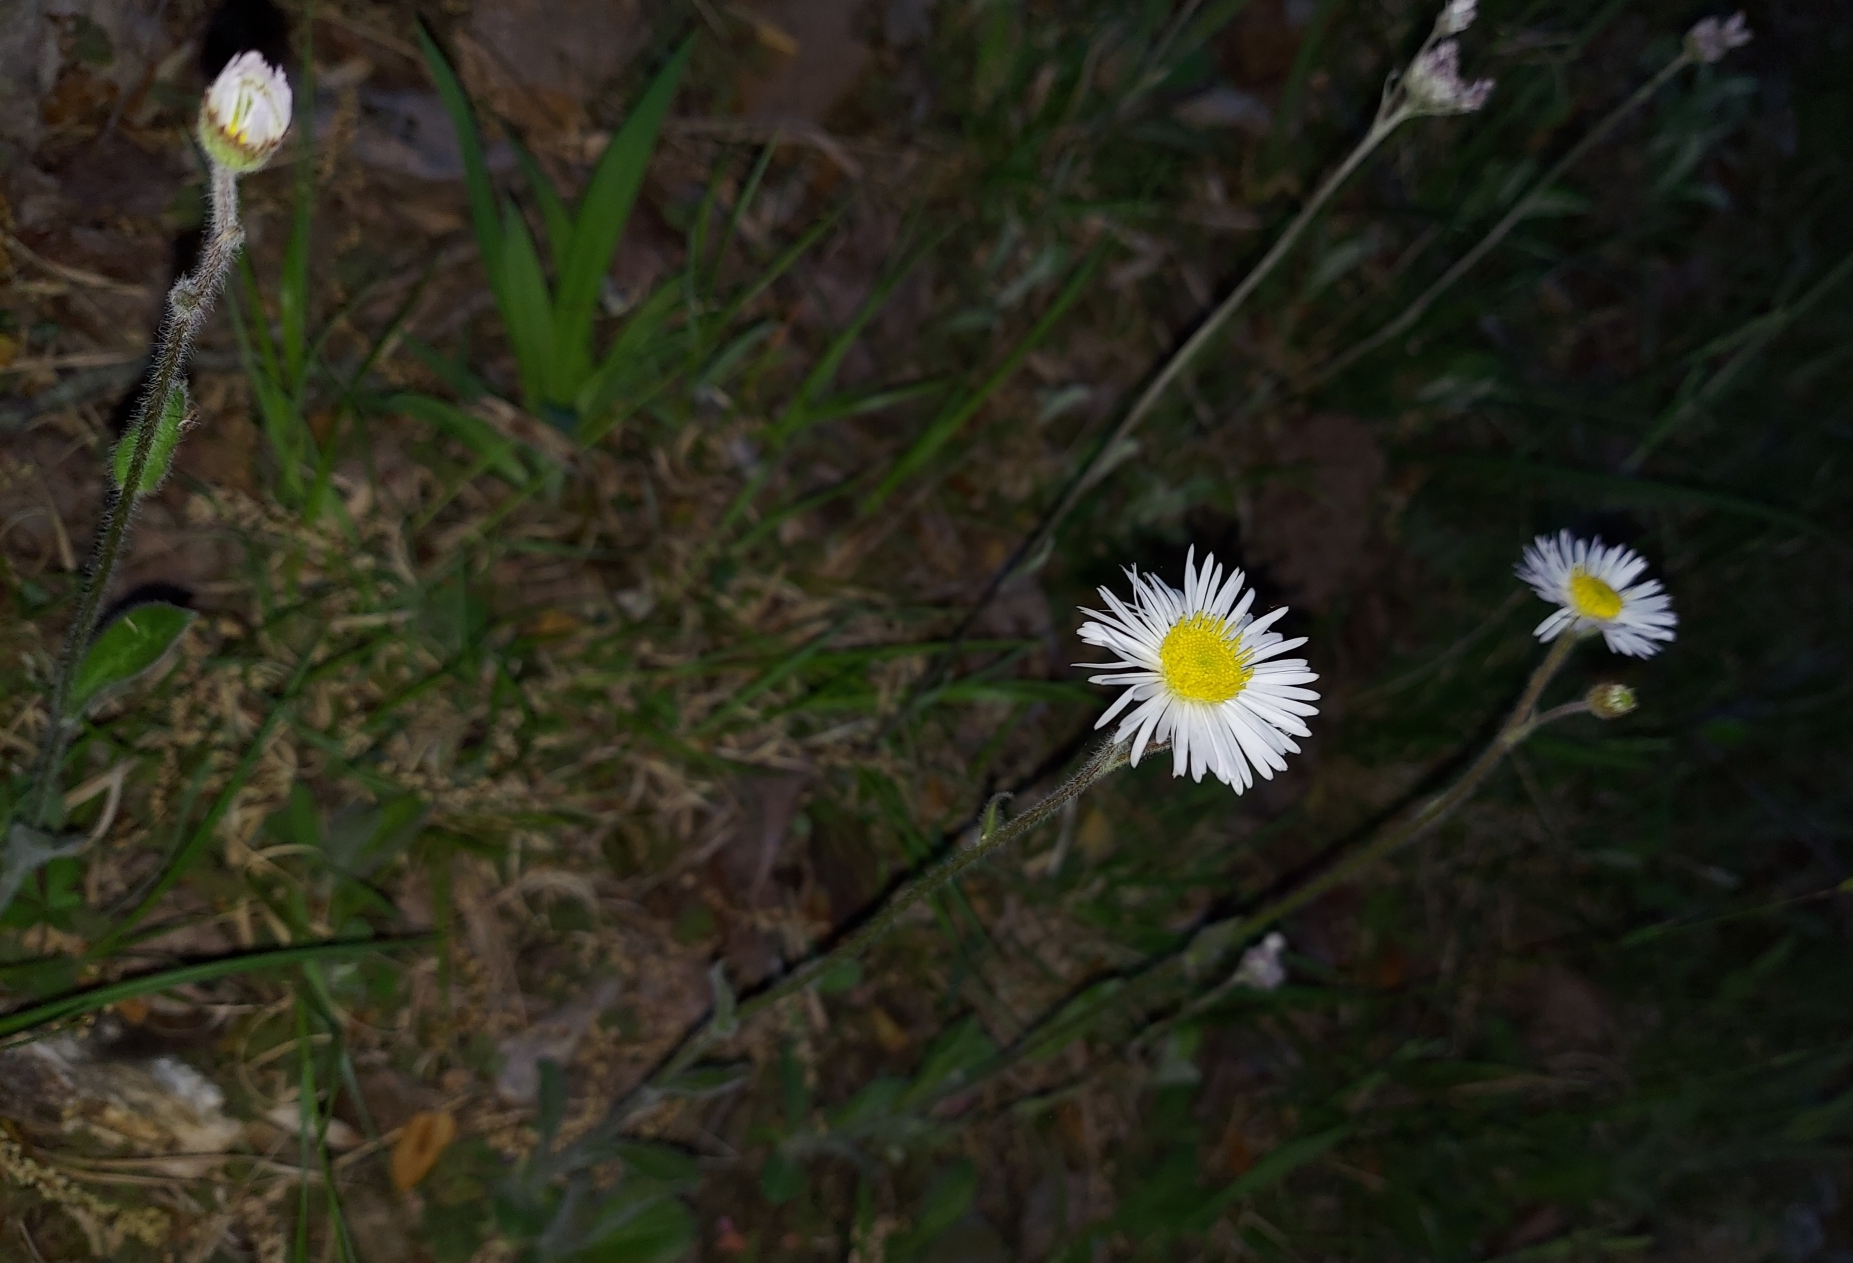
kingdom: Plantae
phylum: Tracheophyta
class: Magnoliopsida
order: Asterales
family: Asteraceae
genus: Erigeron
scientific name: Erigeron pulchellus
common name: Hairy fleabane
